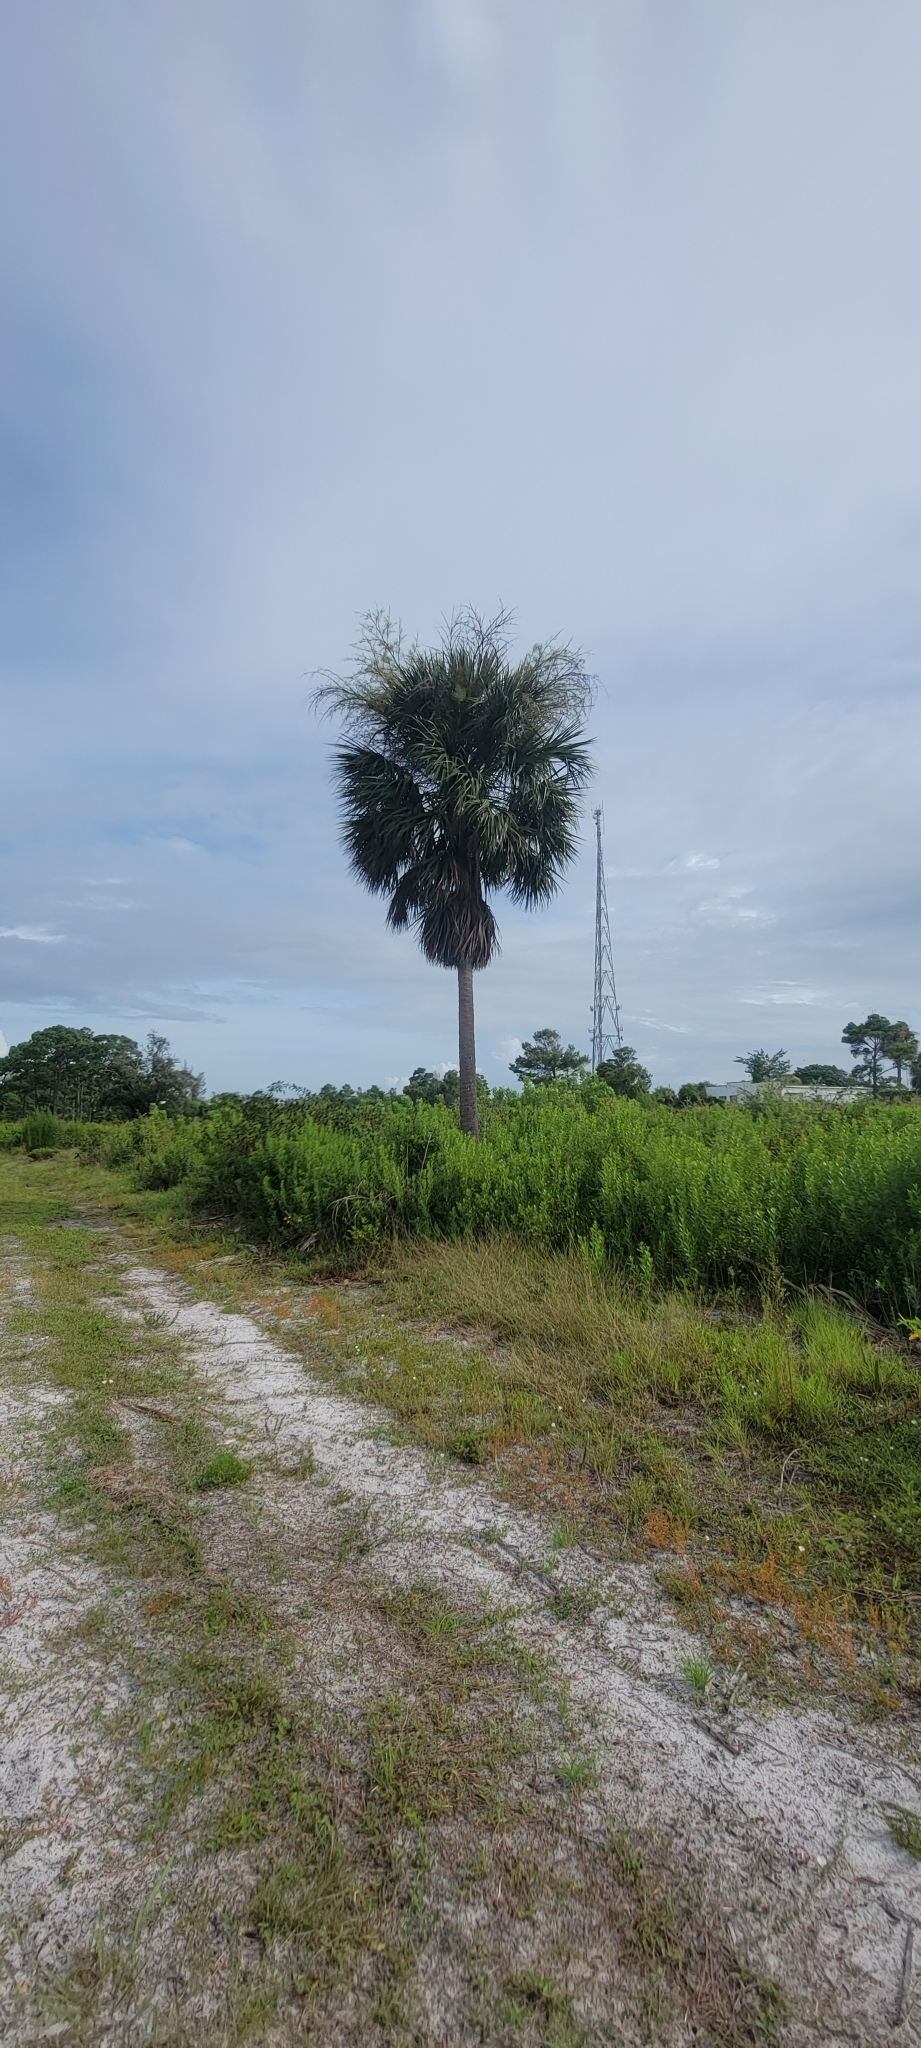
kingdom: Plantae
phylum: Tracheophyta
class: Liliopsida
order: Arecales
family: Arecaceae
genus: Sabal
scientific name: Sabal palmetto
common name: Blue palmetto
